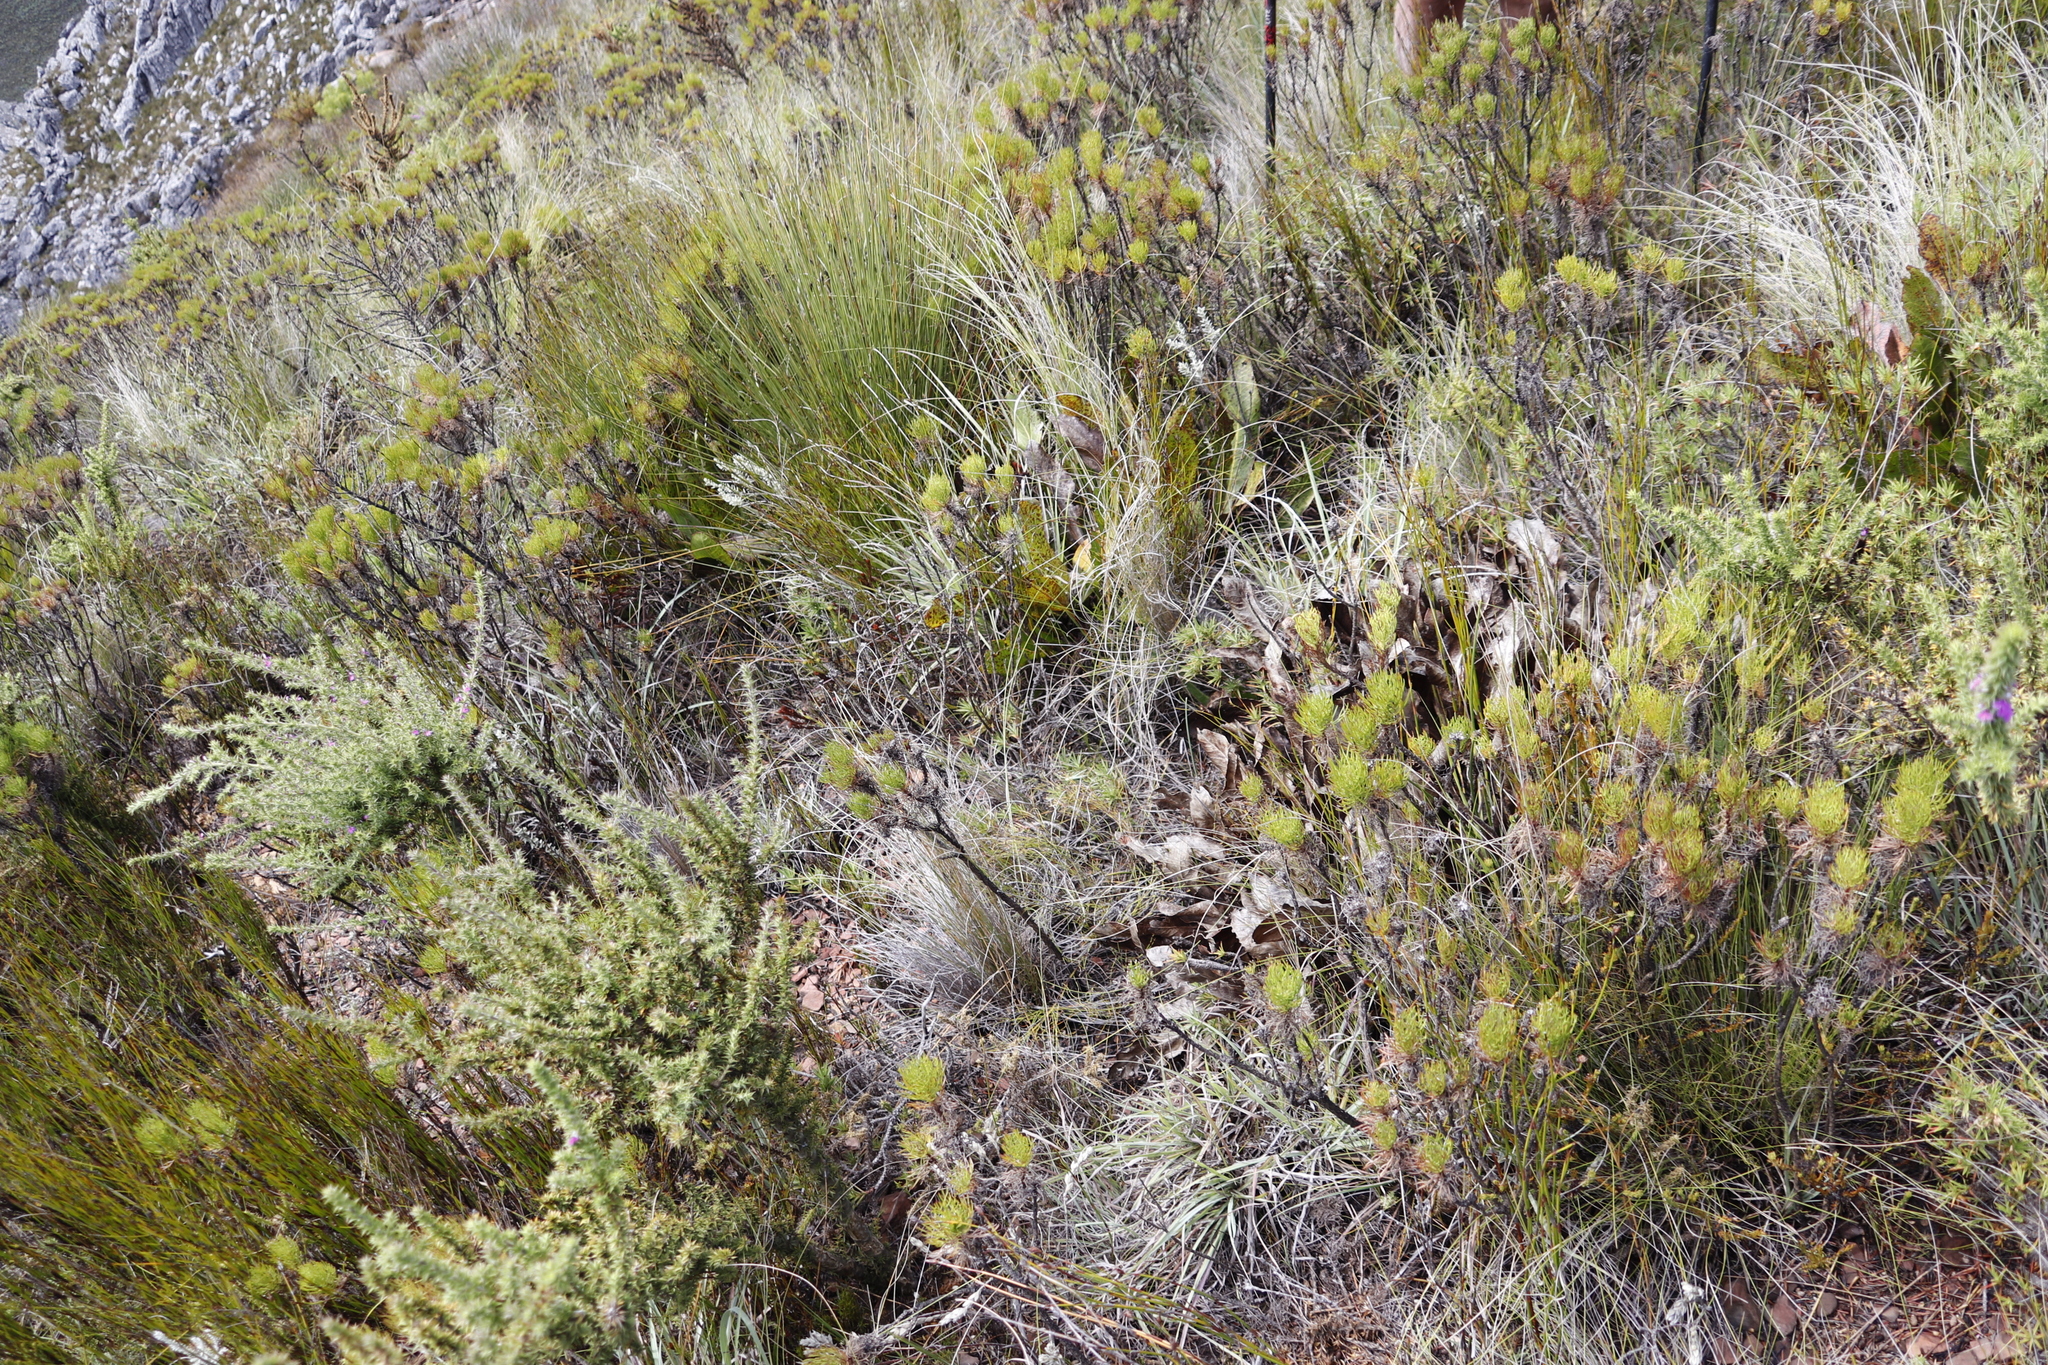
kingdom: Plantae
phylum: Tracheophyta
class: Magnoliopsida
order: Proteales
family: Proteaceae
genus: Protea
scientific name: Protea scolopendriifolia
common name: Harts-tongue-fern sugarbush
